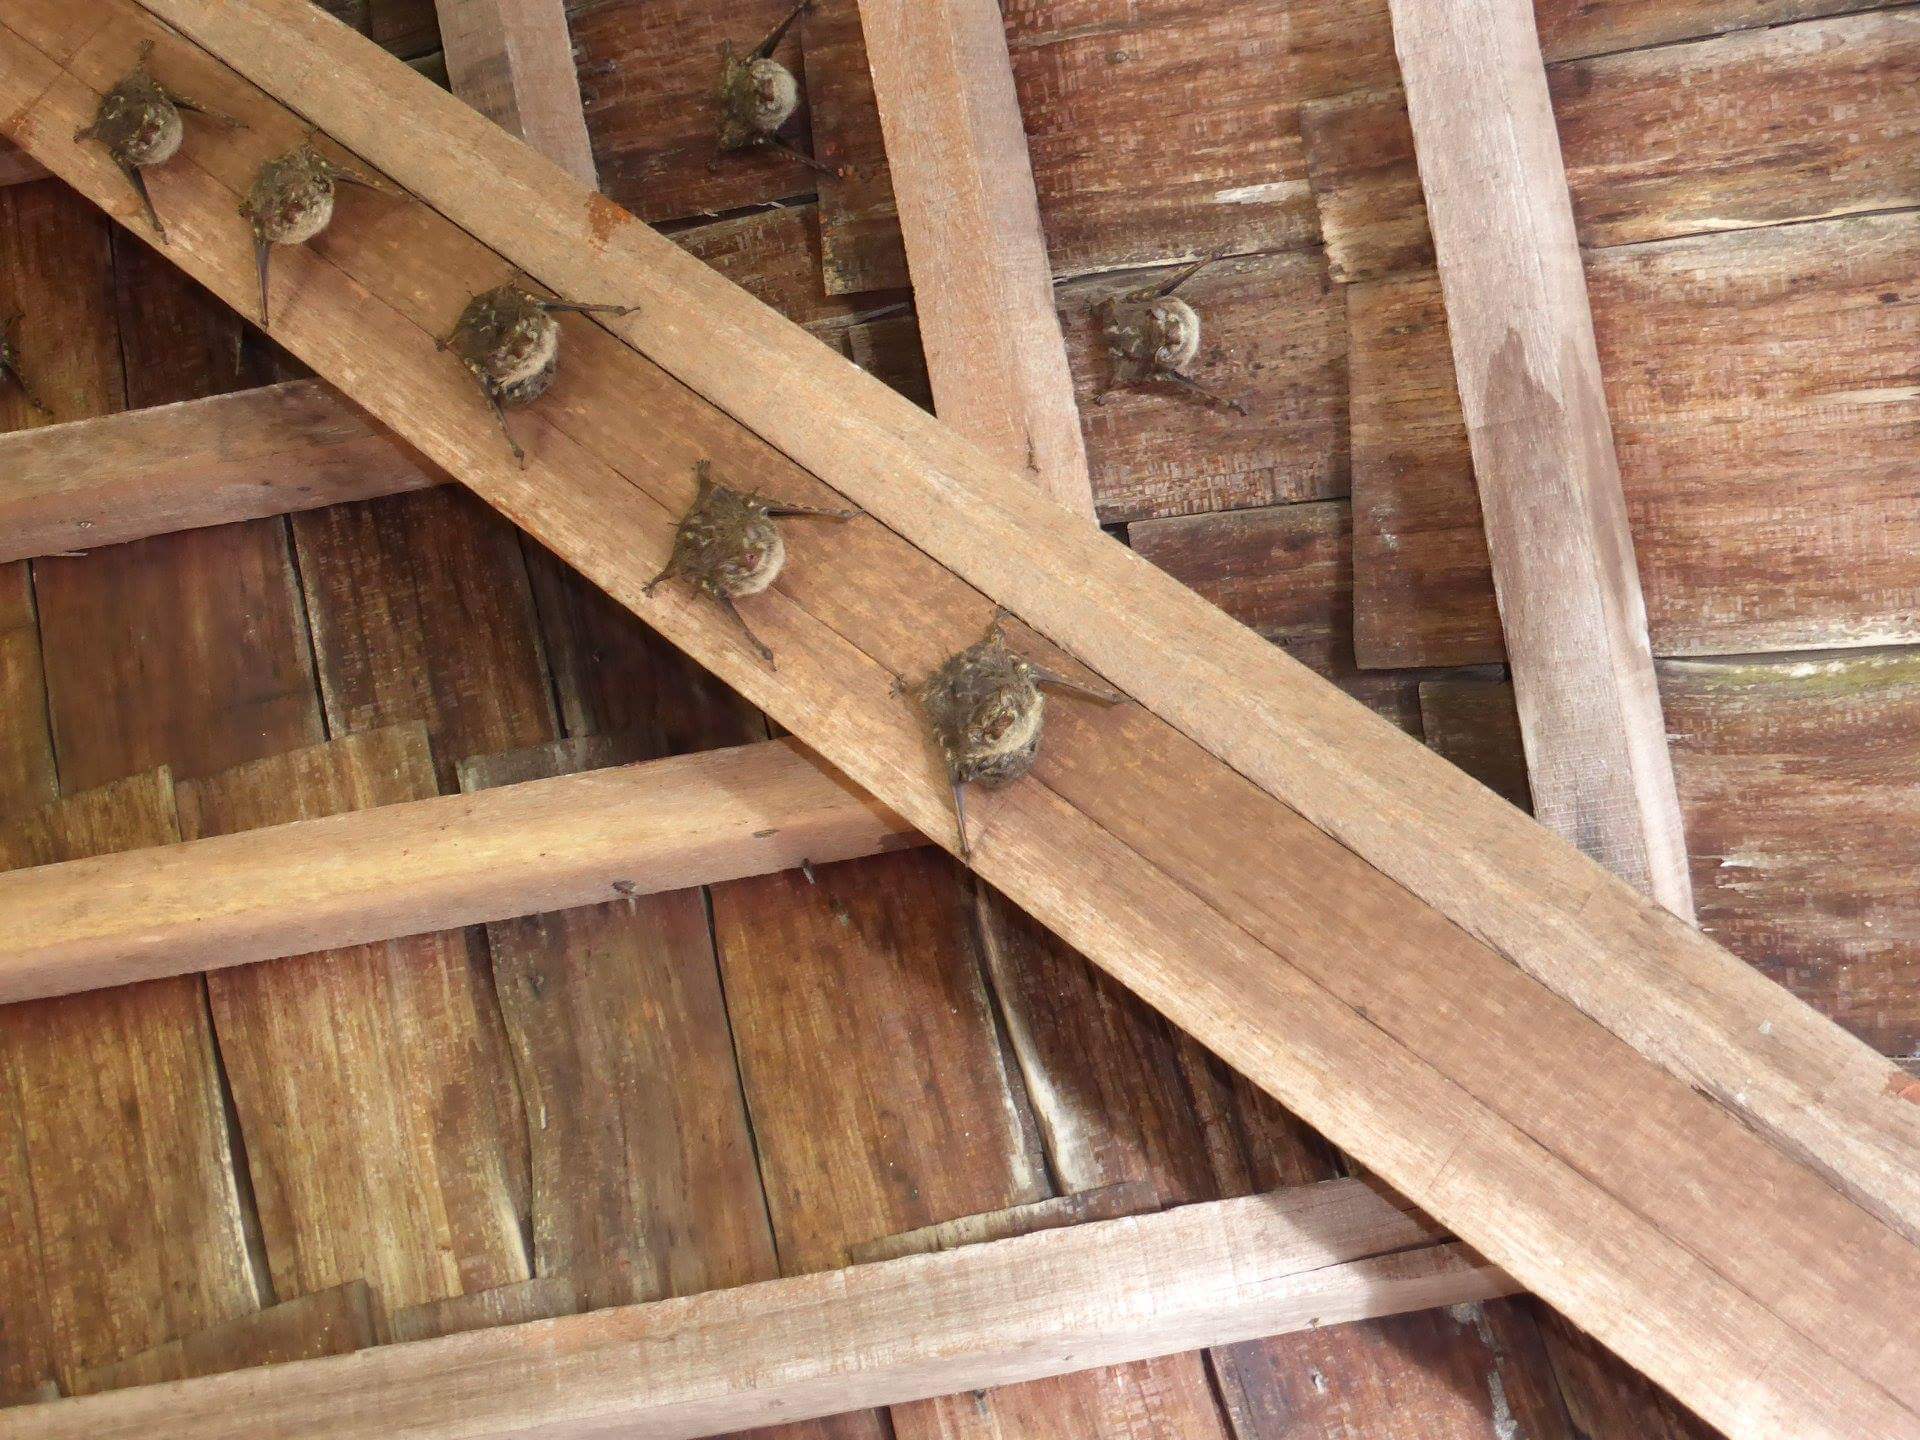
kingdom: Animalia
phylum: Chordata
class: Mammalia
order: Chiroptera
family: Emballonuridae
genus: Rhynchonycteris
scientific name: Rhynchonycteris naso
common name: Proboscis bat
